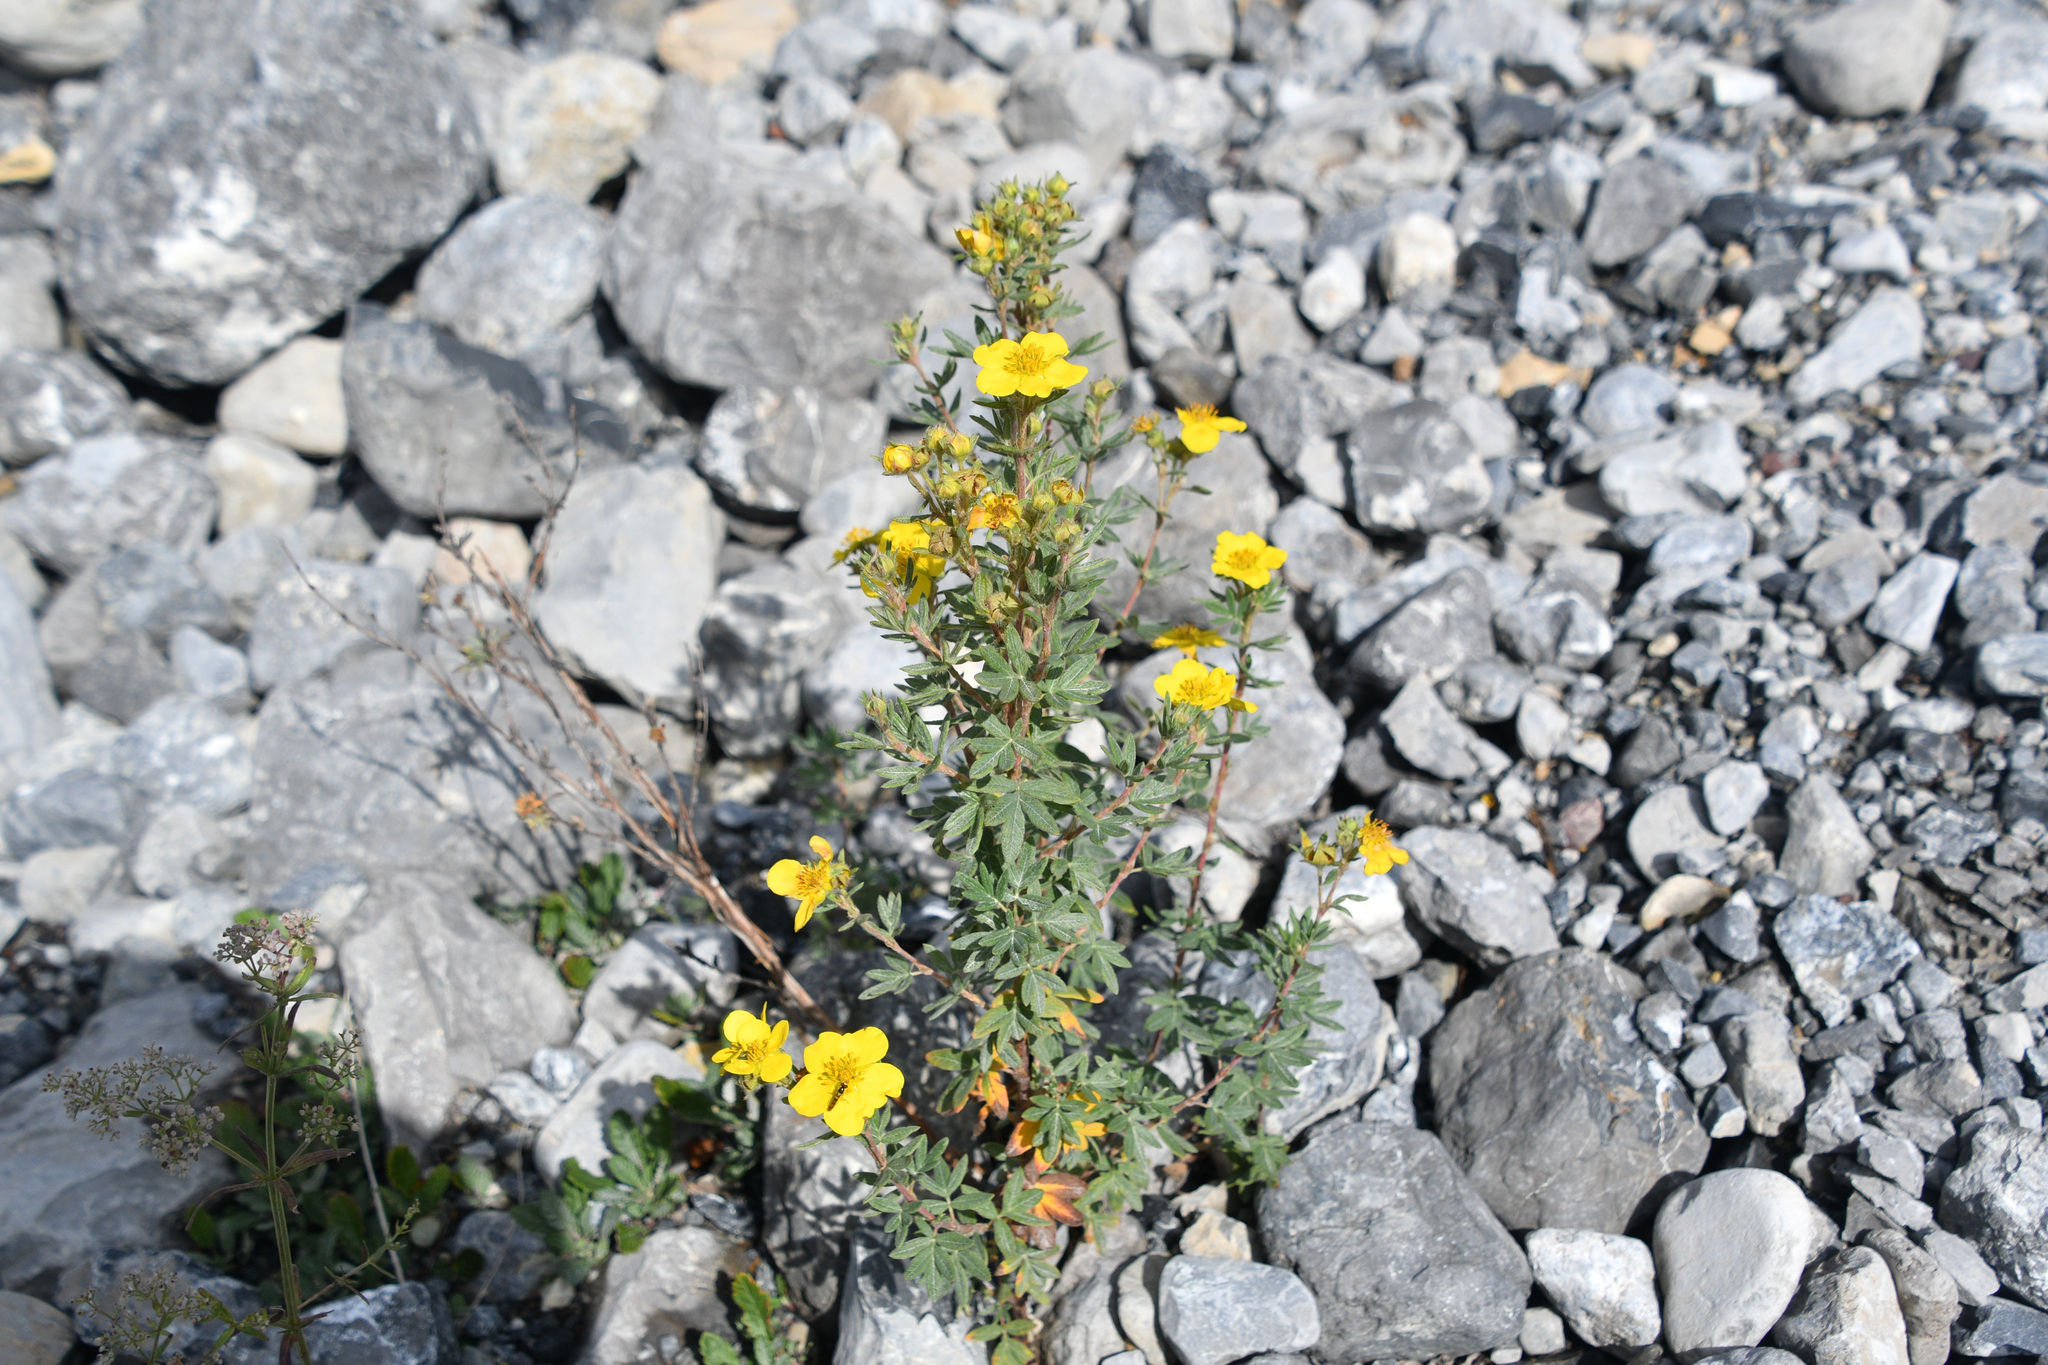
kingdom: Plantae
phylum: Tracheophyta
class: Magnoliopsida
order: Rosales
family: Rosaceae
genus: Dasiphora
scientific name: Dasiphora fruticosa
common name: Shrubby cinquefoil
